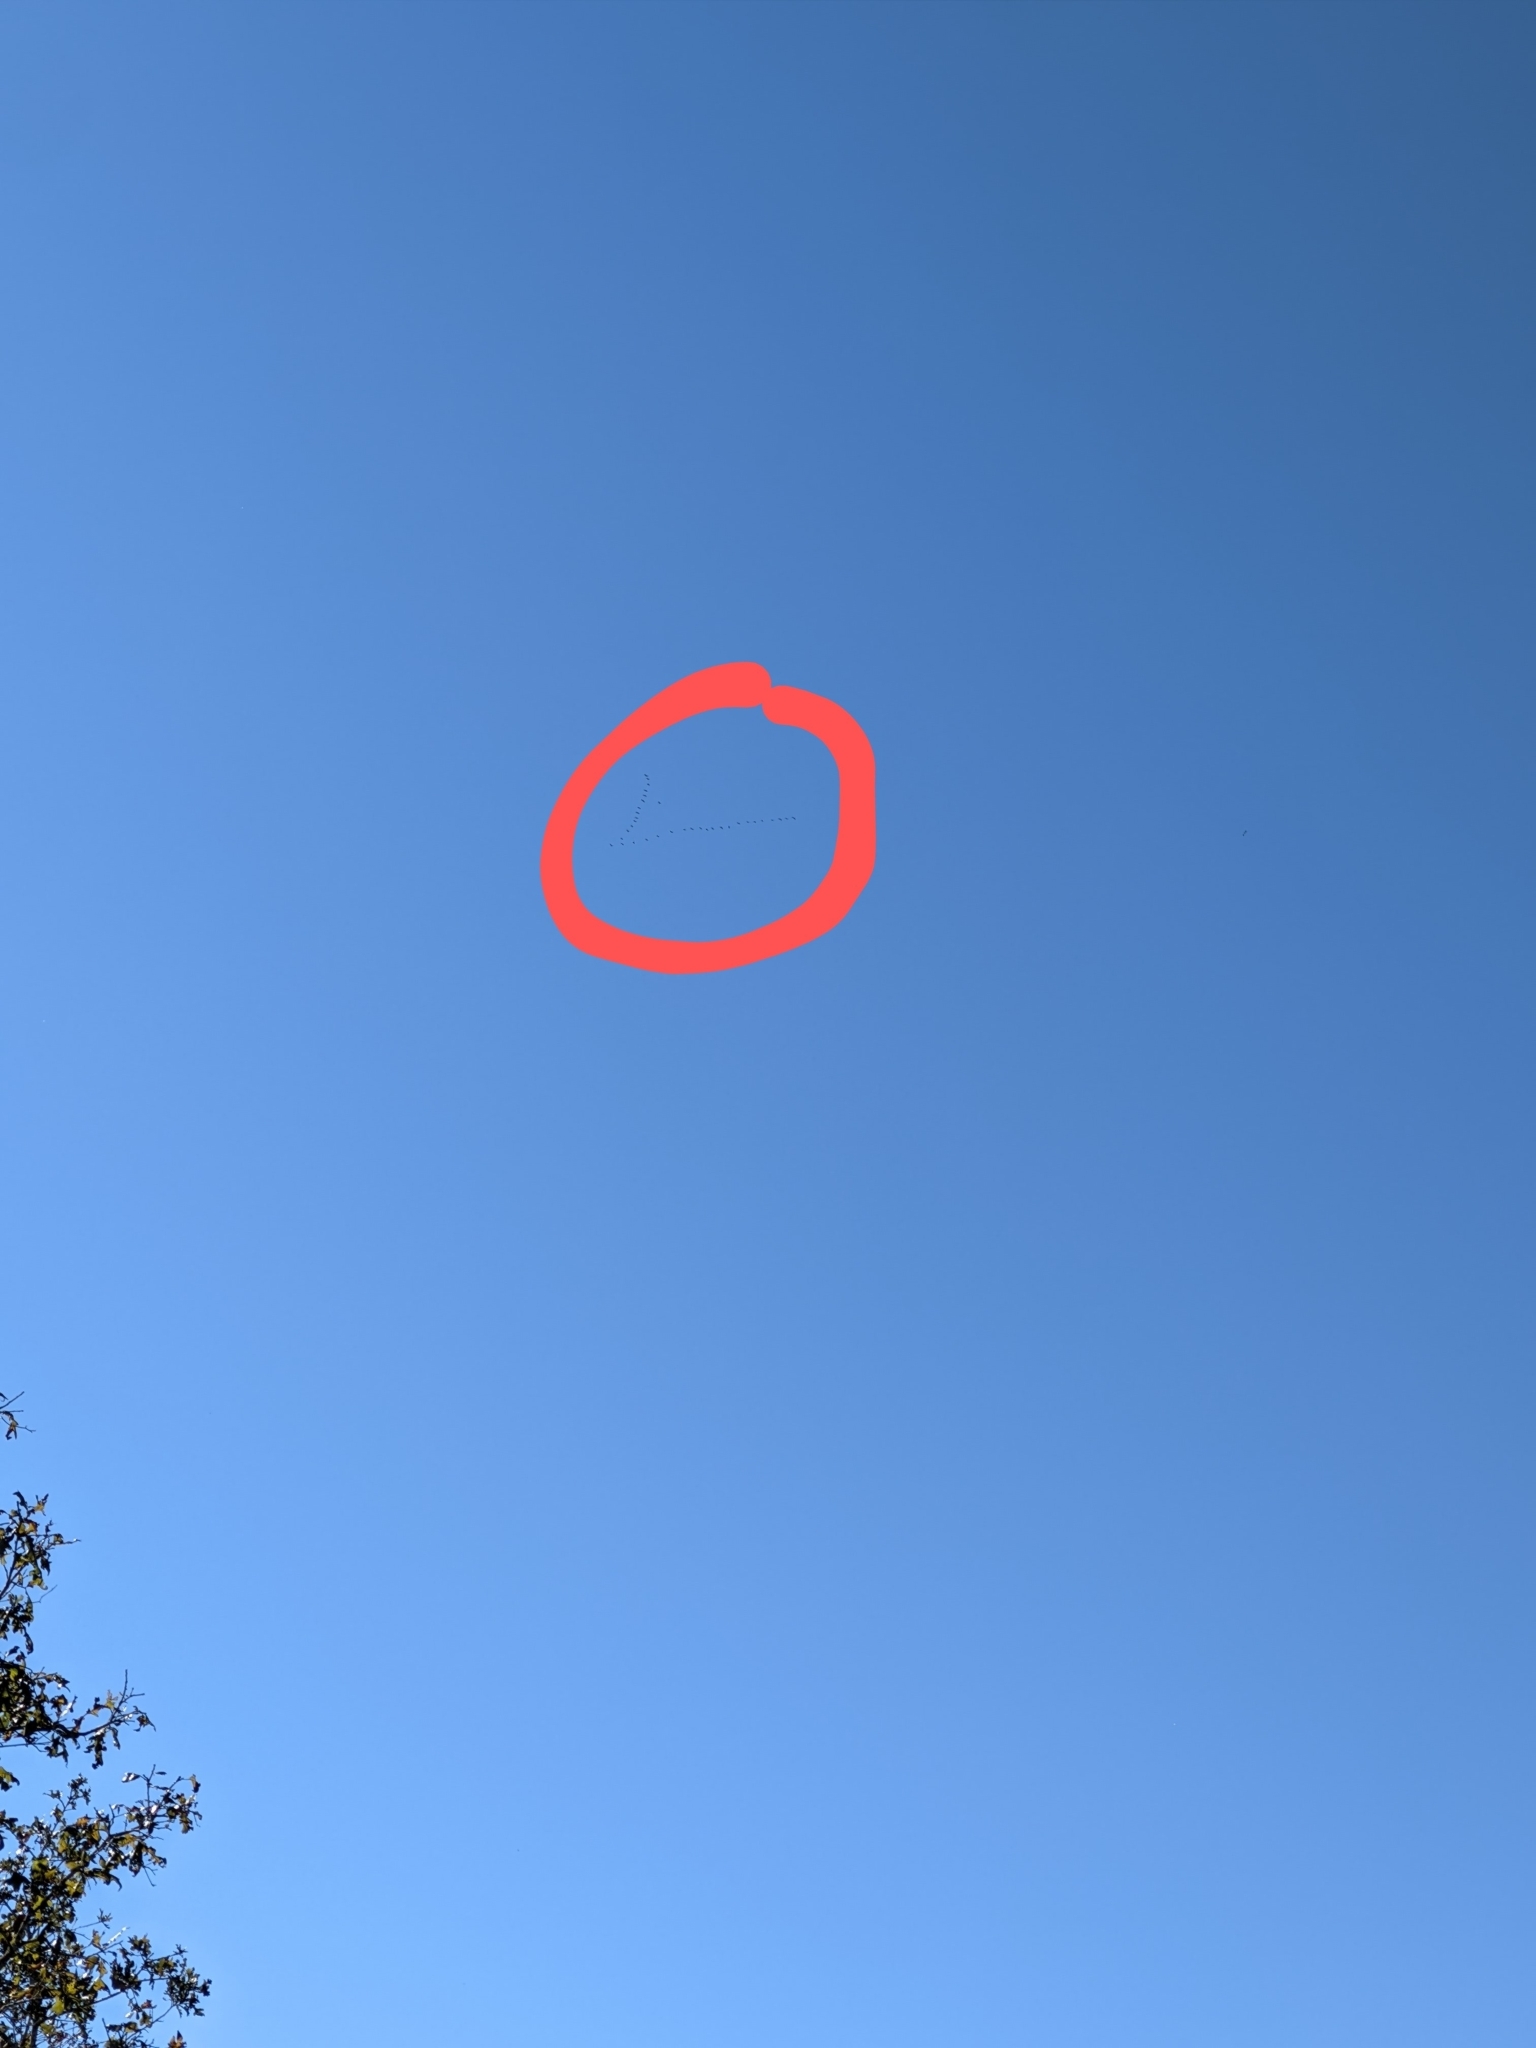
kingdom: Animalia
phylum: Chordata
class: Aves
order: Gruiformes
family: Gruidae
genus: Grus
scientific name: Grus canadensis
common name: Sandhill crane
